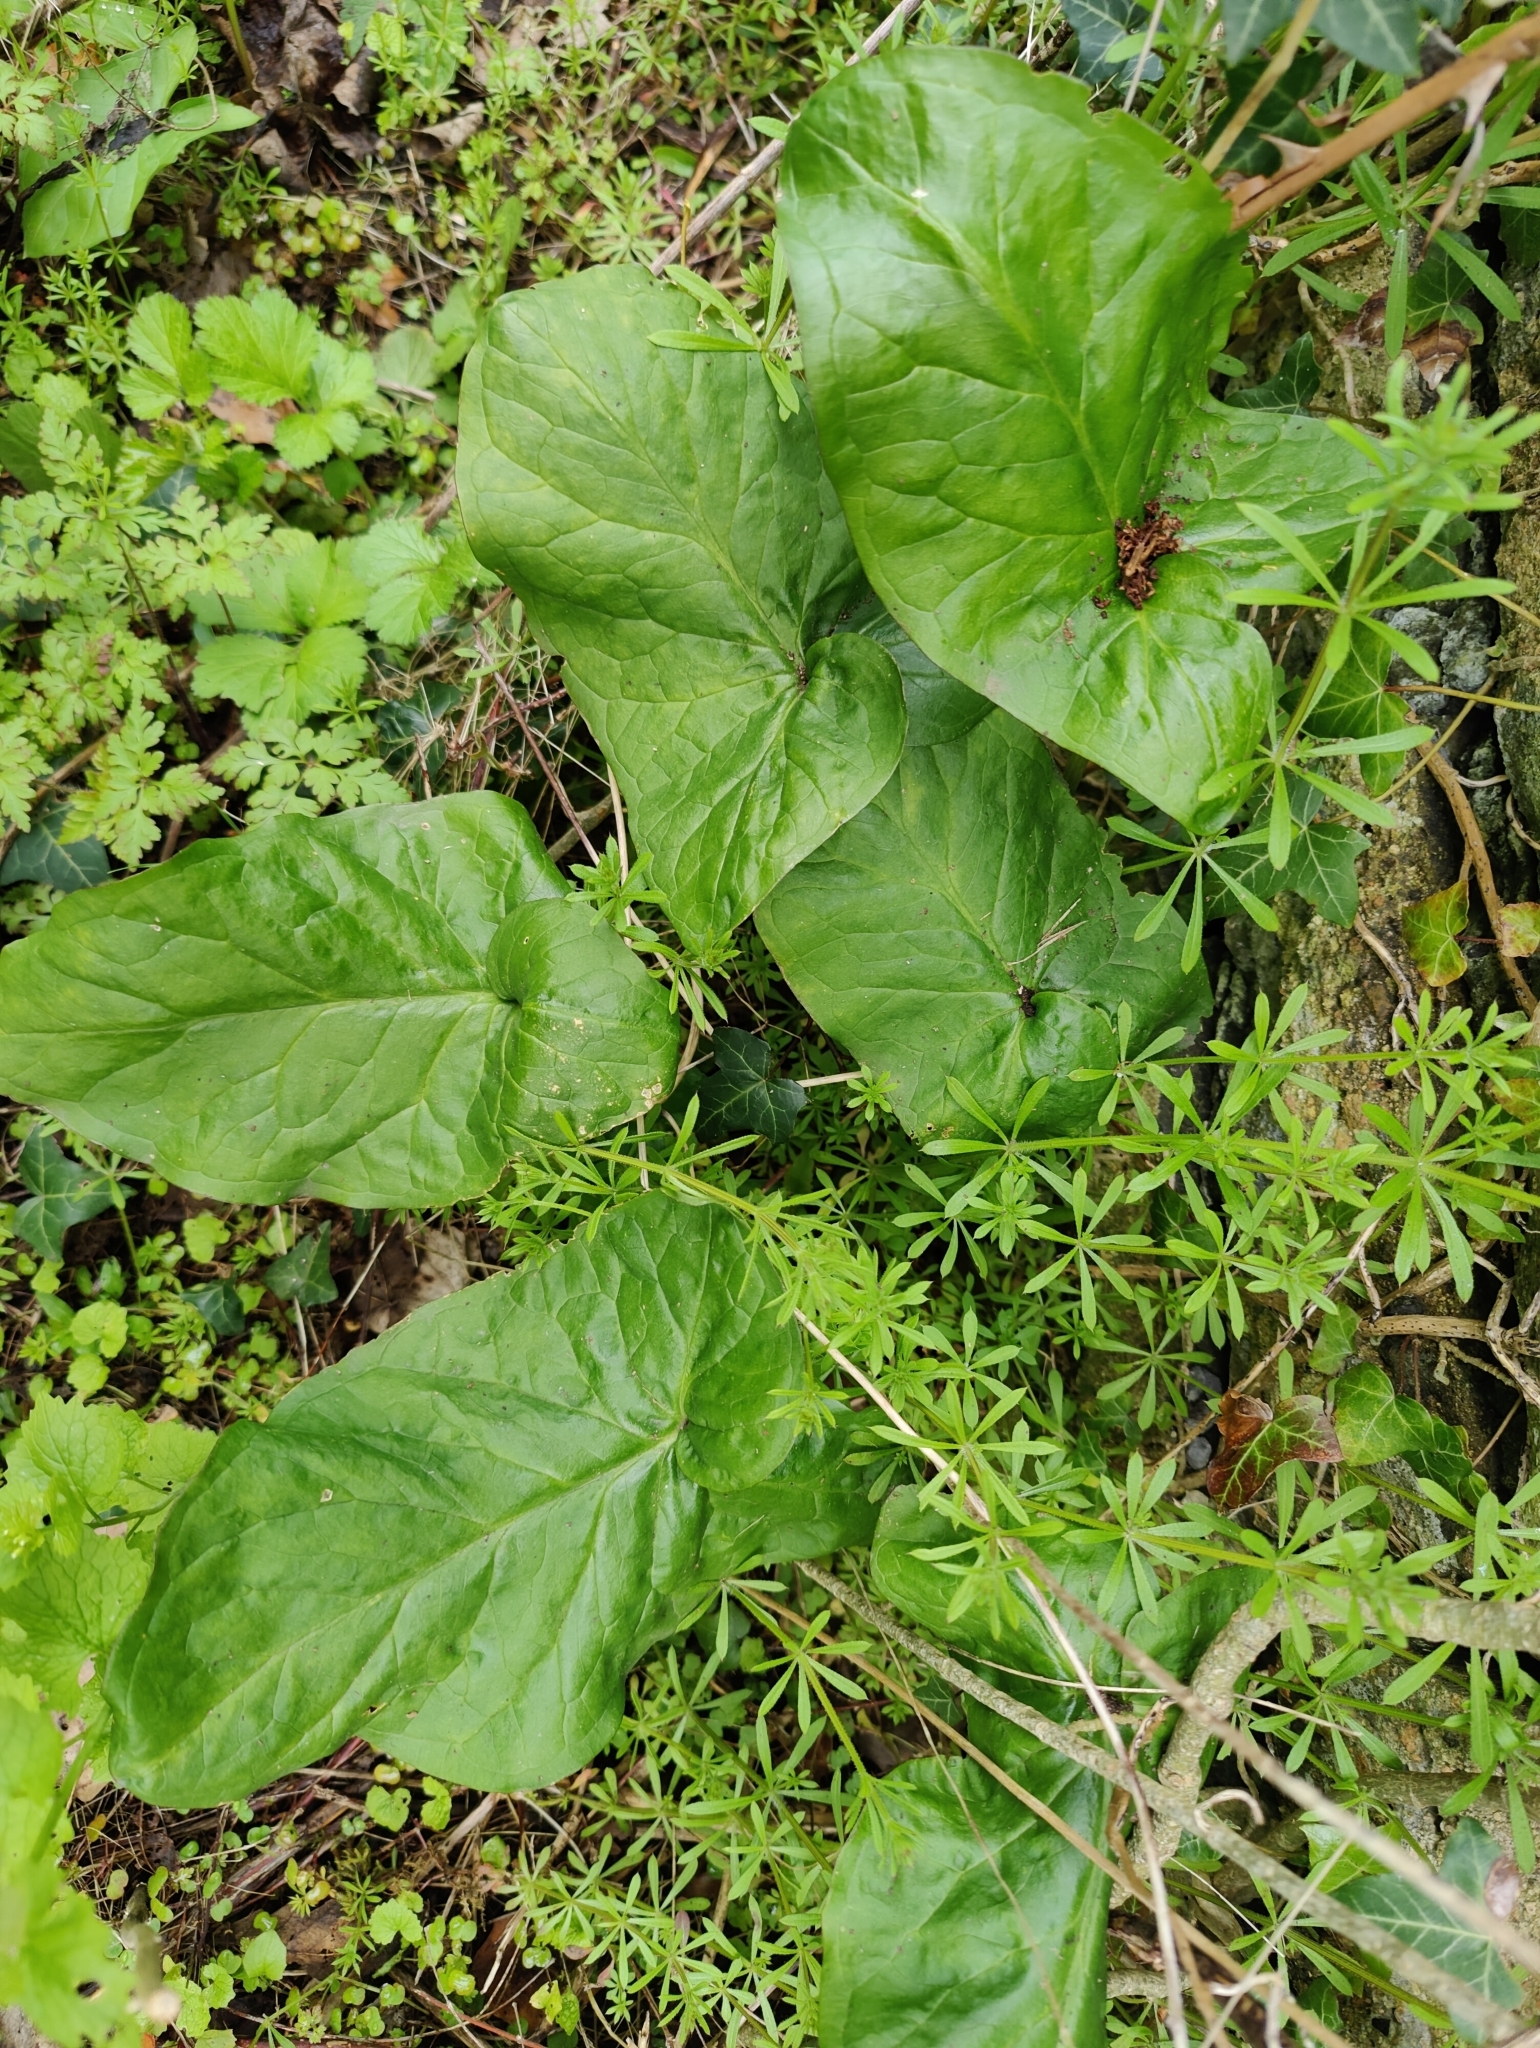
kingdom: Plantae
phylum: Tracheophyta
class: Liliopsida
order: Alismatales
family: Araceae
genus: Arum
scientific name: Arum maculatum
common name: Lords-and-ladies
